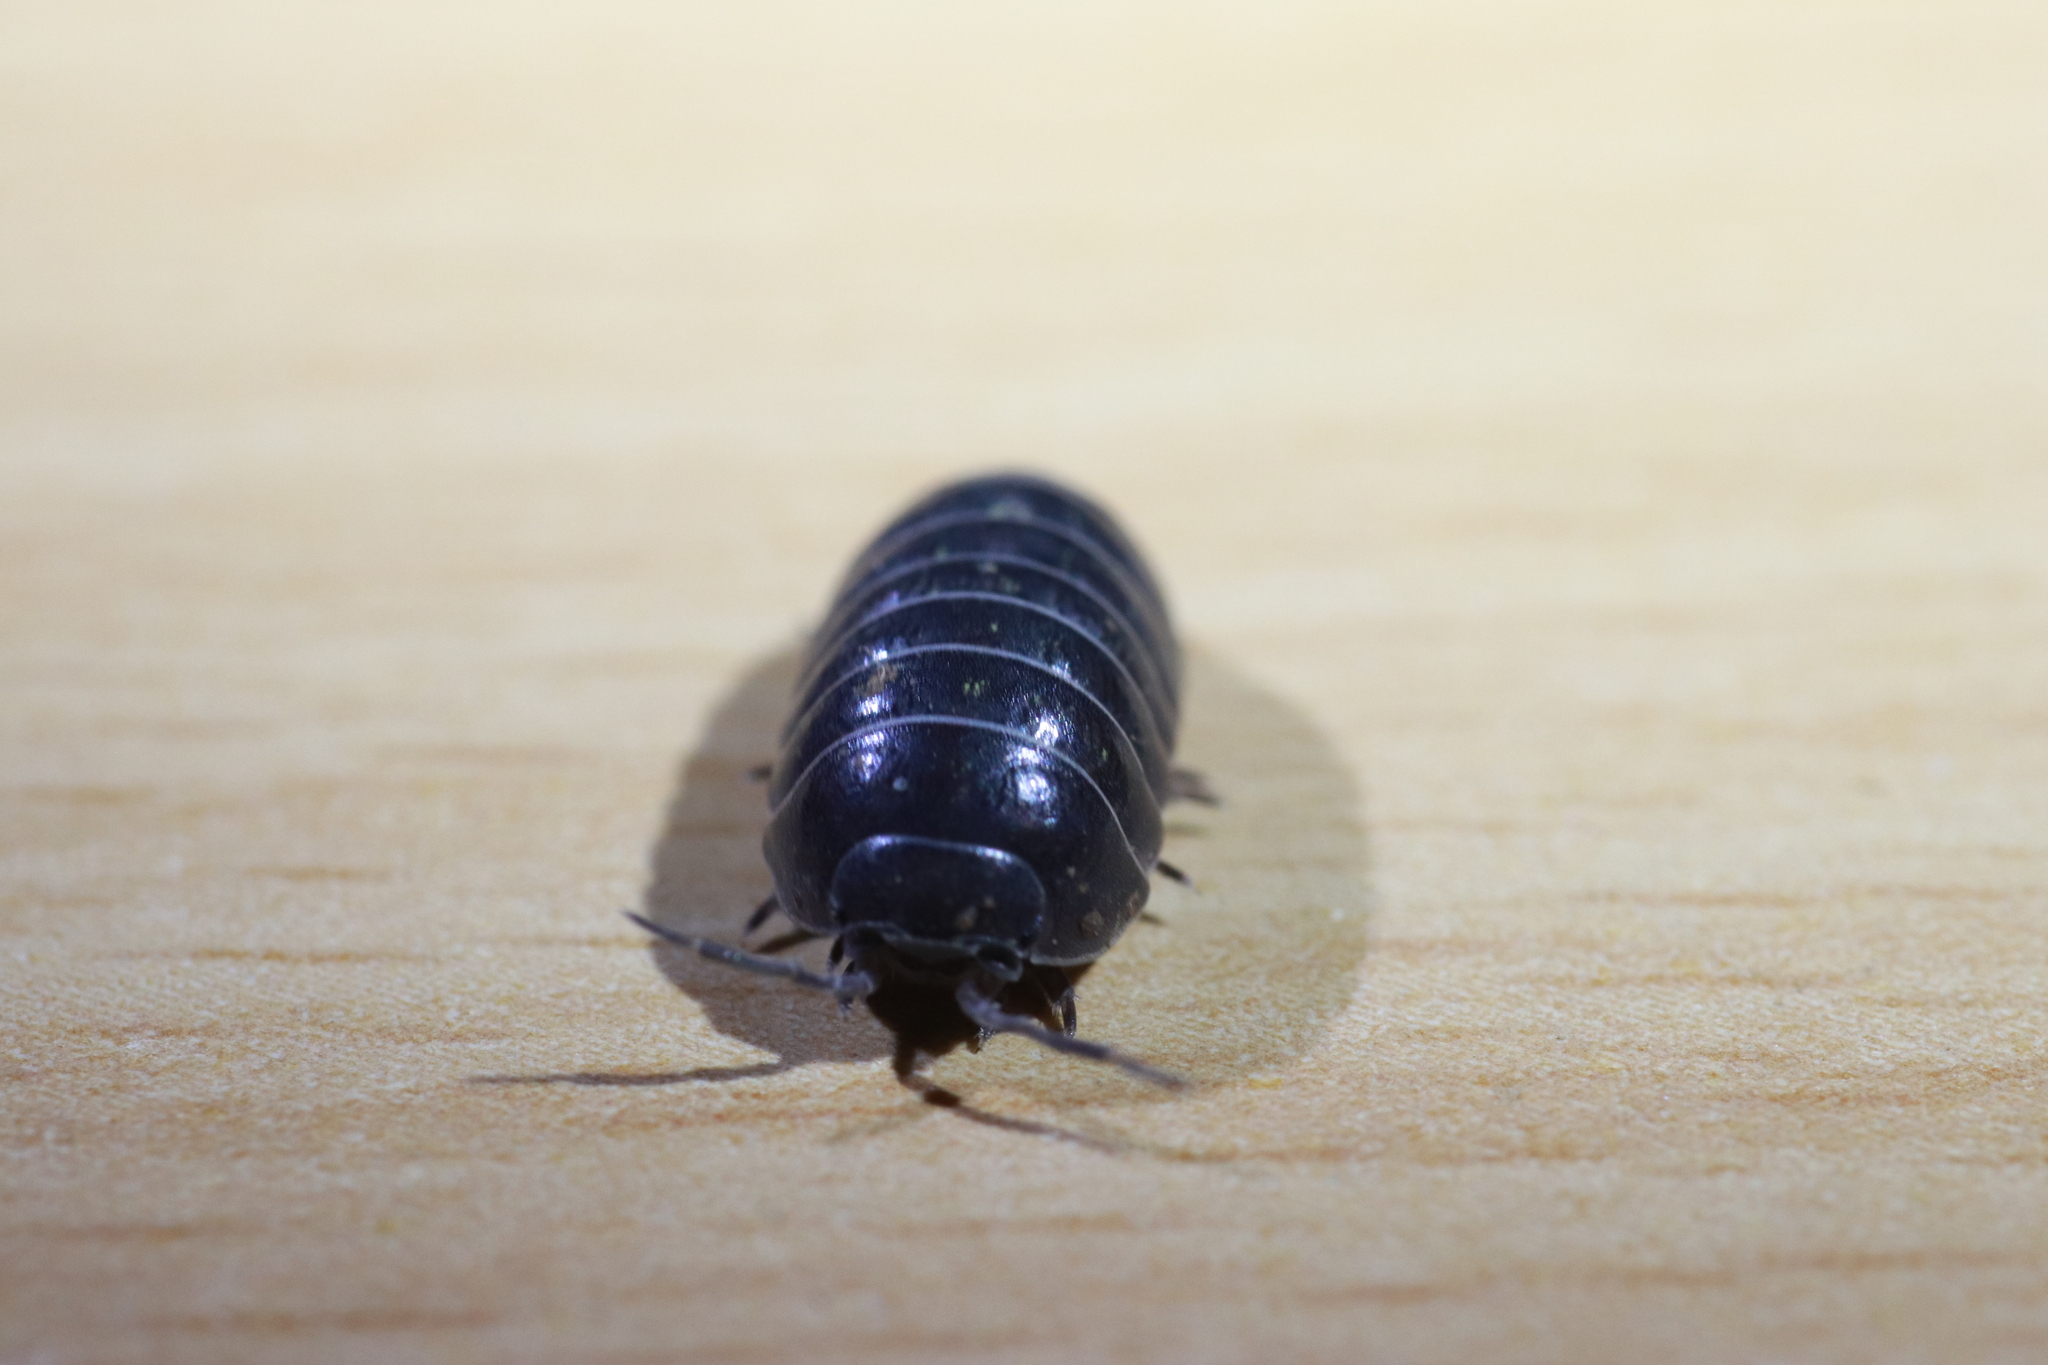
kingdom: Animalia
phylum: Arthropoda
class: Malacostraca
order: Isopoda
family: Armadillidiidae
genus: Armadillidium
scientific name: Armadillidium vulgare
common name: Common pill woodlouse
